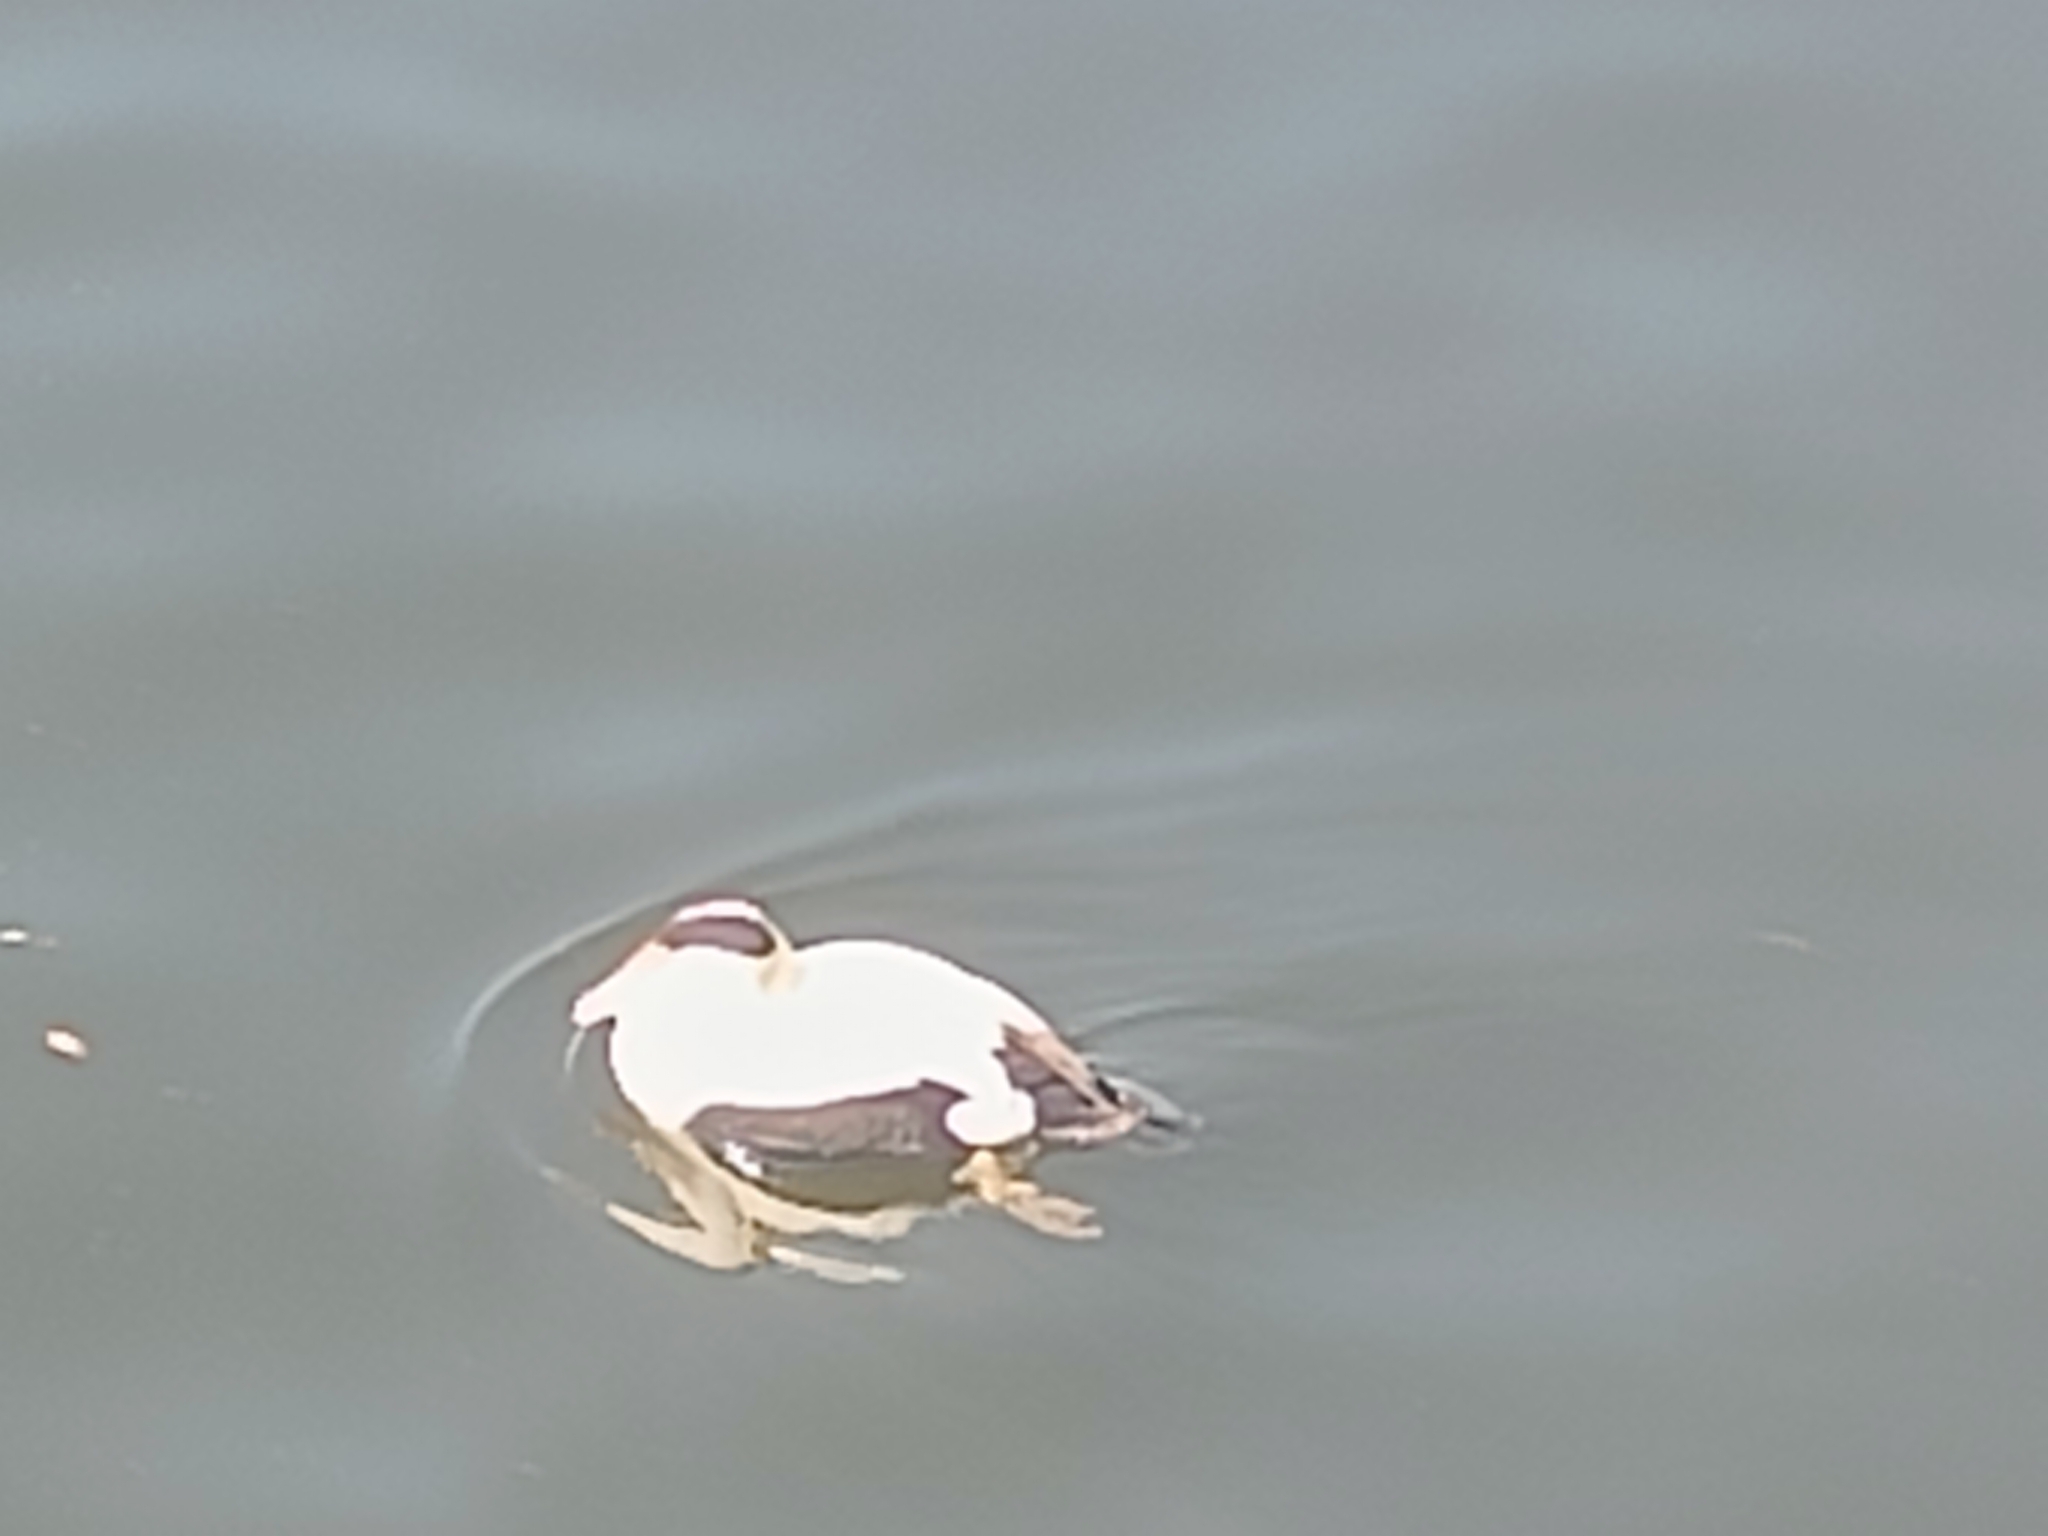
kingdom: Animalia
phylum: Chordata
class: Aves
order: Anseriformes
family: Anatidae
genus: Somateria
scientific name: Somateria mollissima
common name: Common eider
